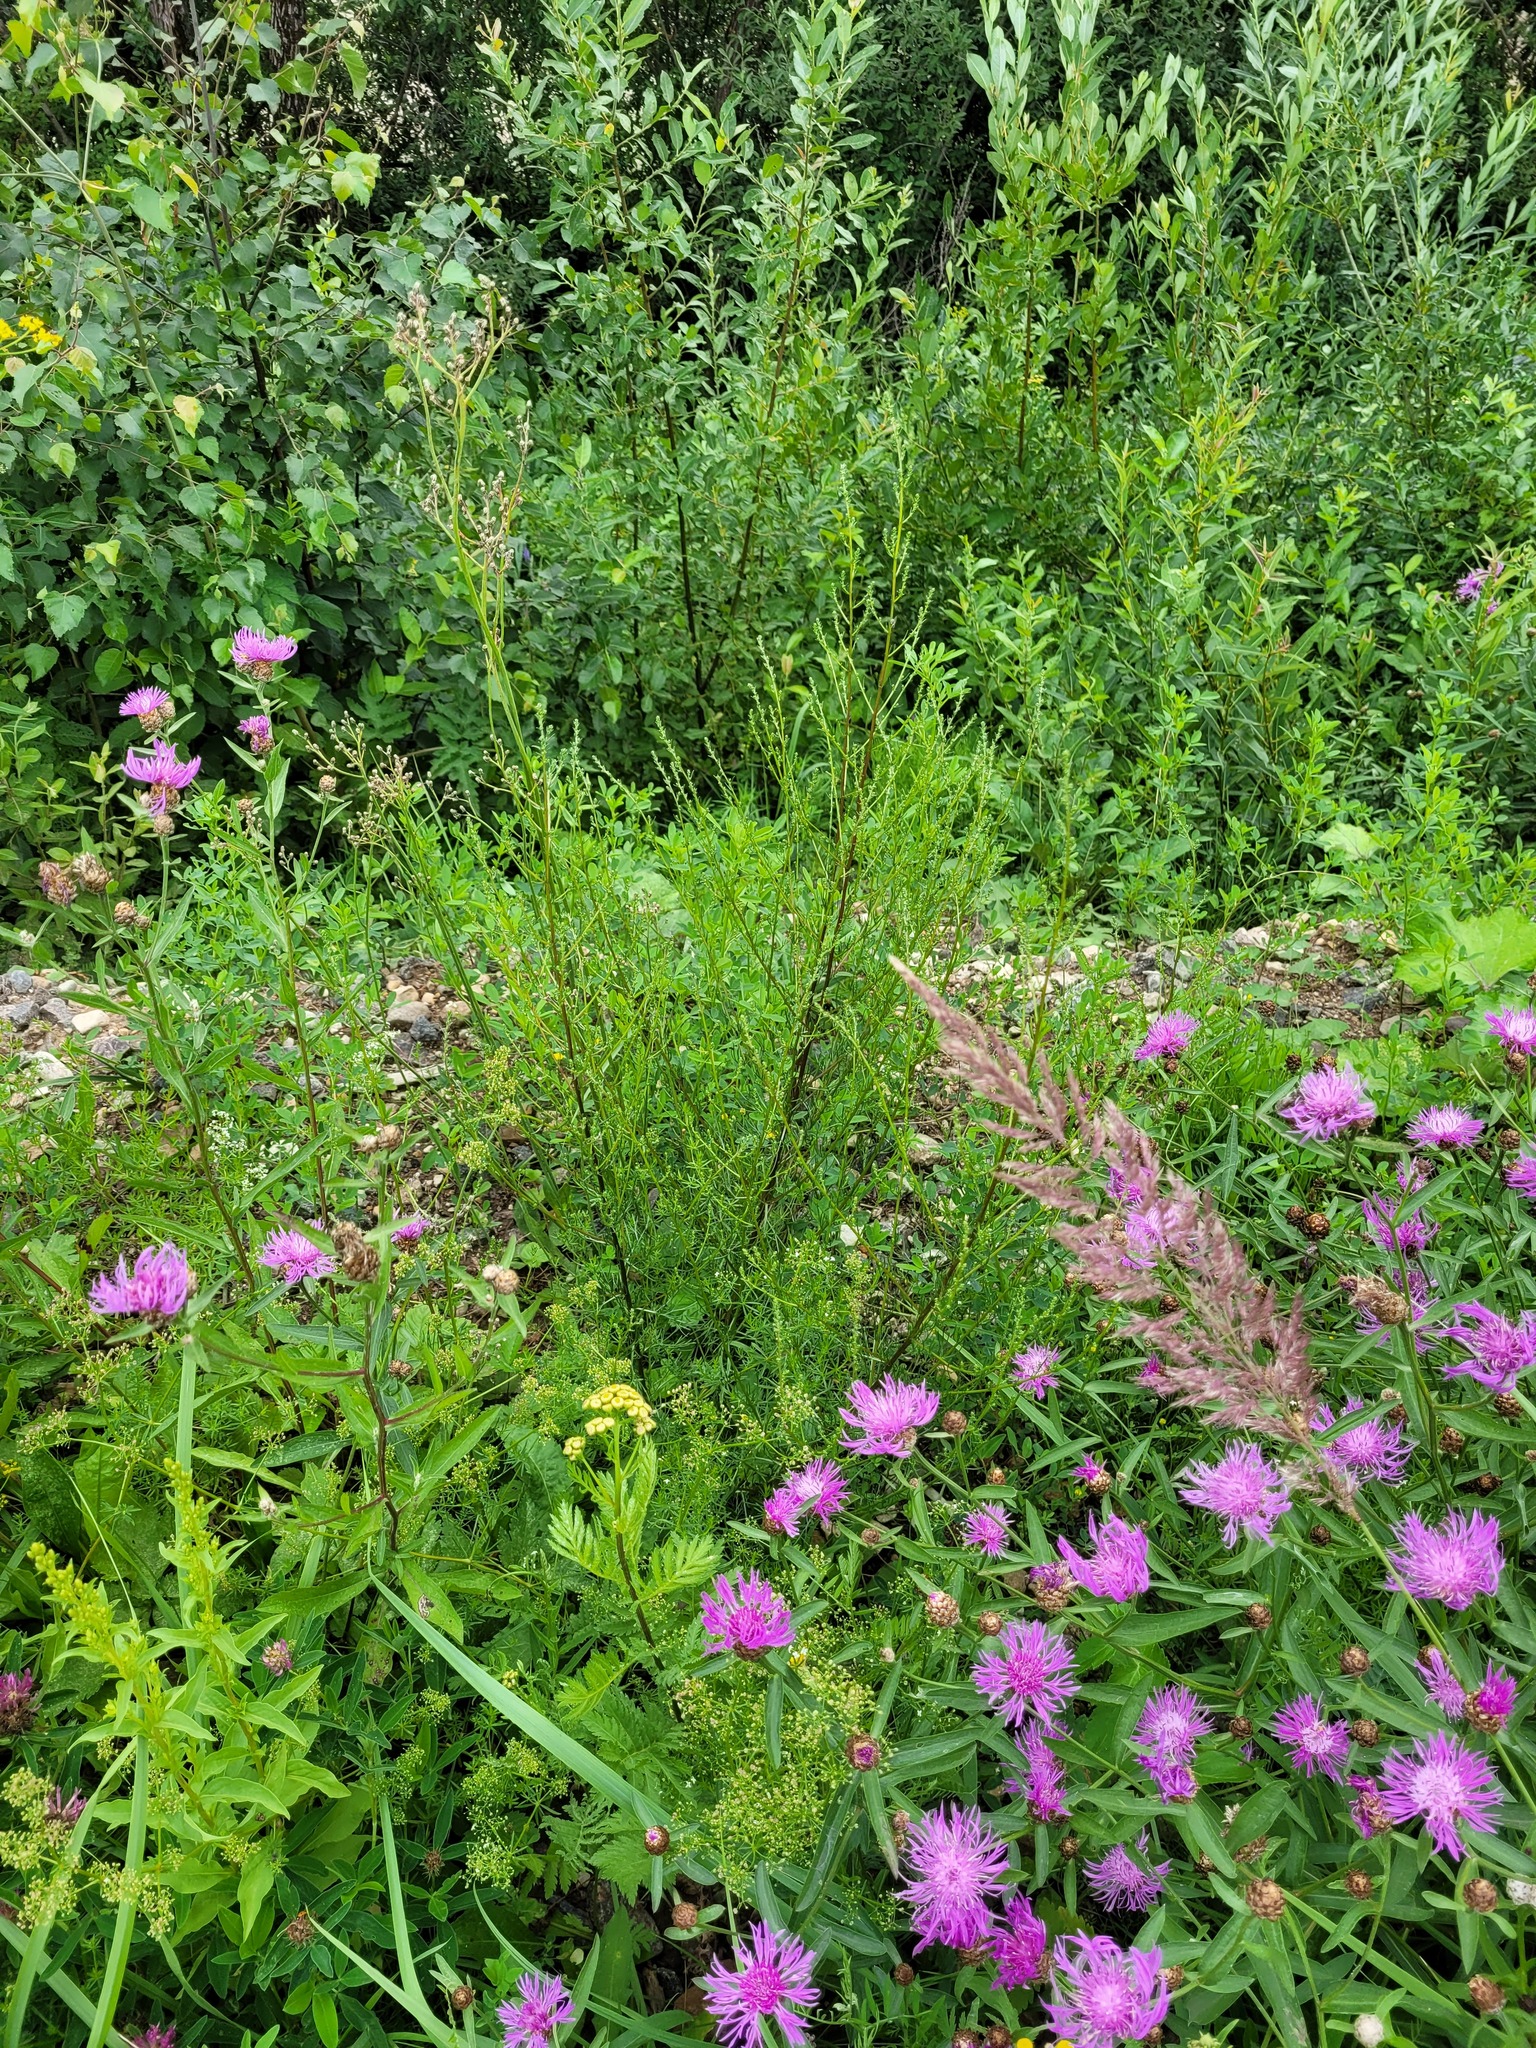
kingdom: Plantae
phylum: Tracheophyta
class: Magnoliopsida
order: Asterales
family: Asteraceae
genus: Artemisia
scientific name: Artemisia campestris
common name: Field wormwood
